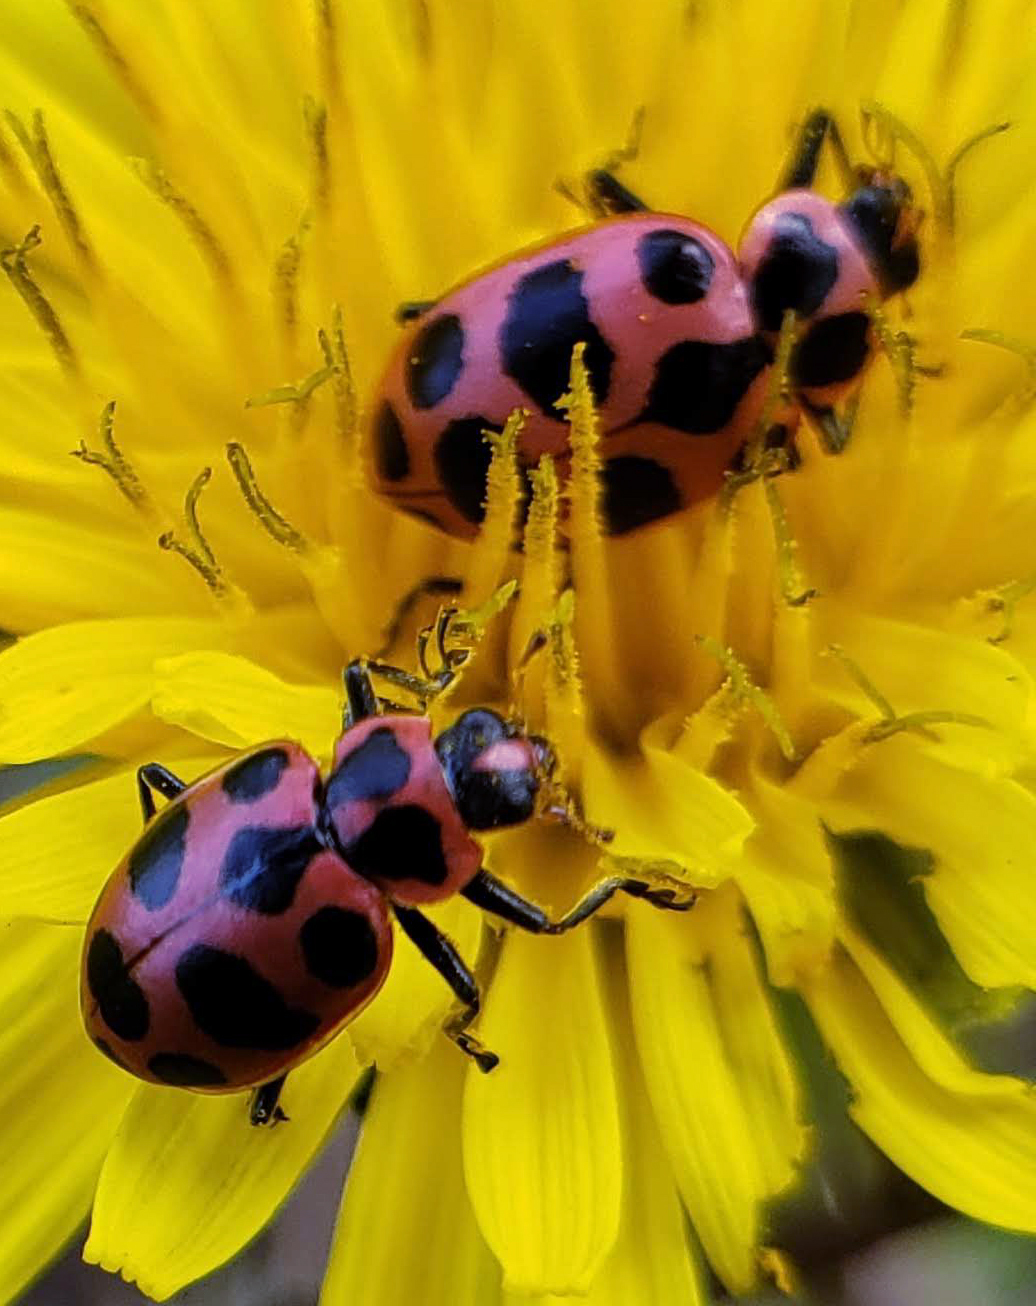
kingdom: Animalia
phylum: Arthropoda
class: Insecta
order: Coleoptera
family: Coccinellidae
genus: Coleomegilla
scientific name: Coleomegilla maculata
